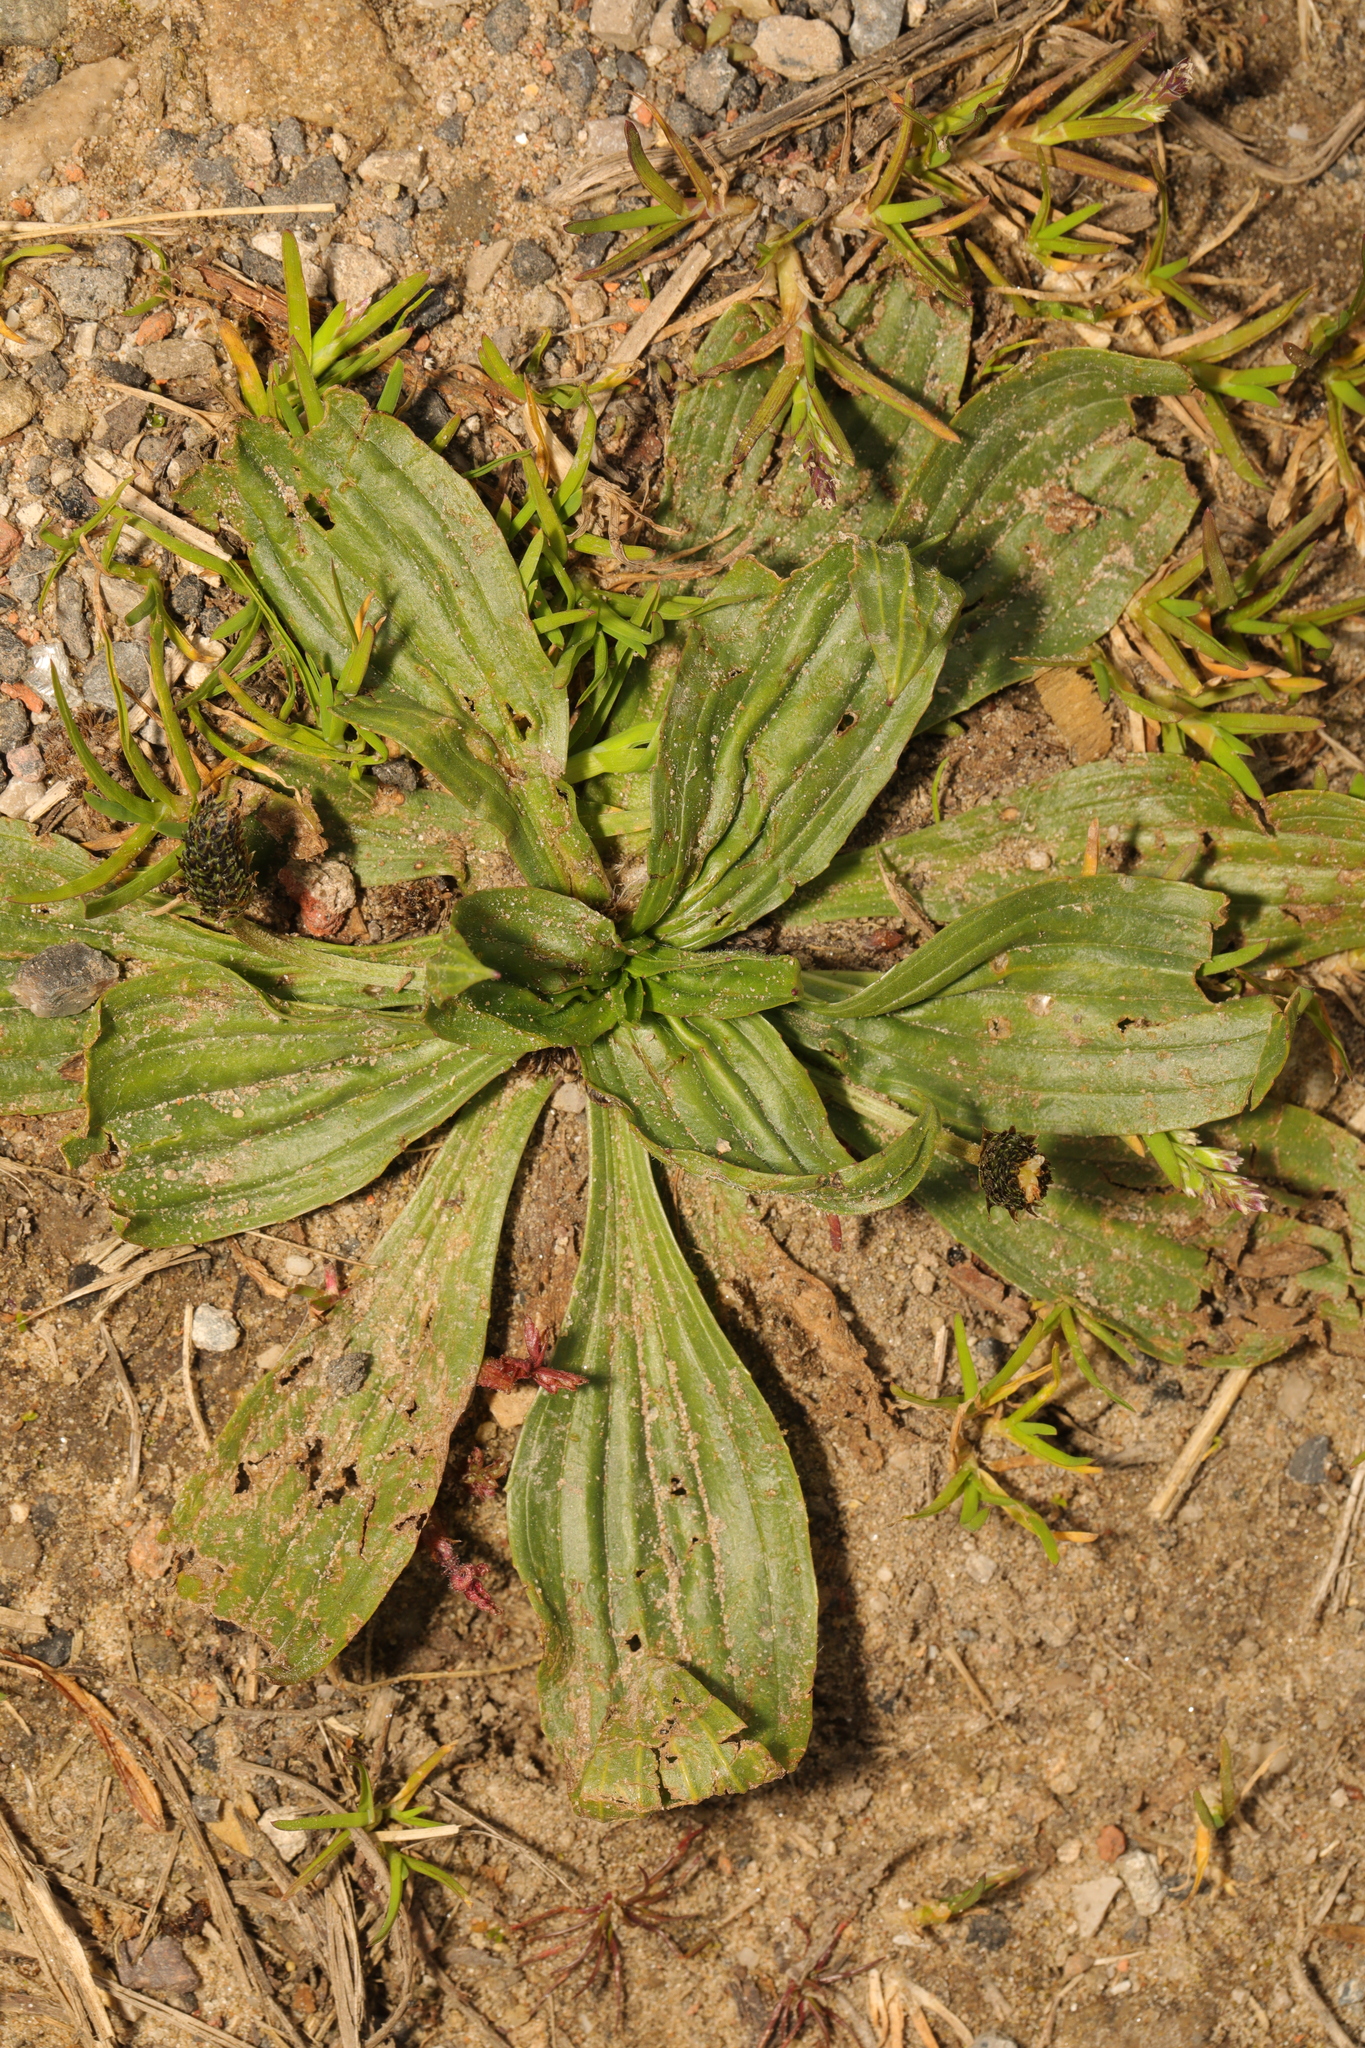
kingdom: Plantae
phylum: Tracheophyta
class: Magnoliopsida
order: Lamiales
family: Plantaginaceae
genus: Plantago
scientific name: Plantago lanceolata
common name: Ribwort plantain
